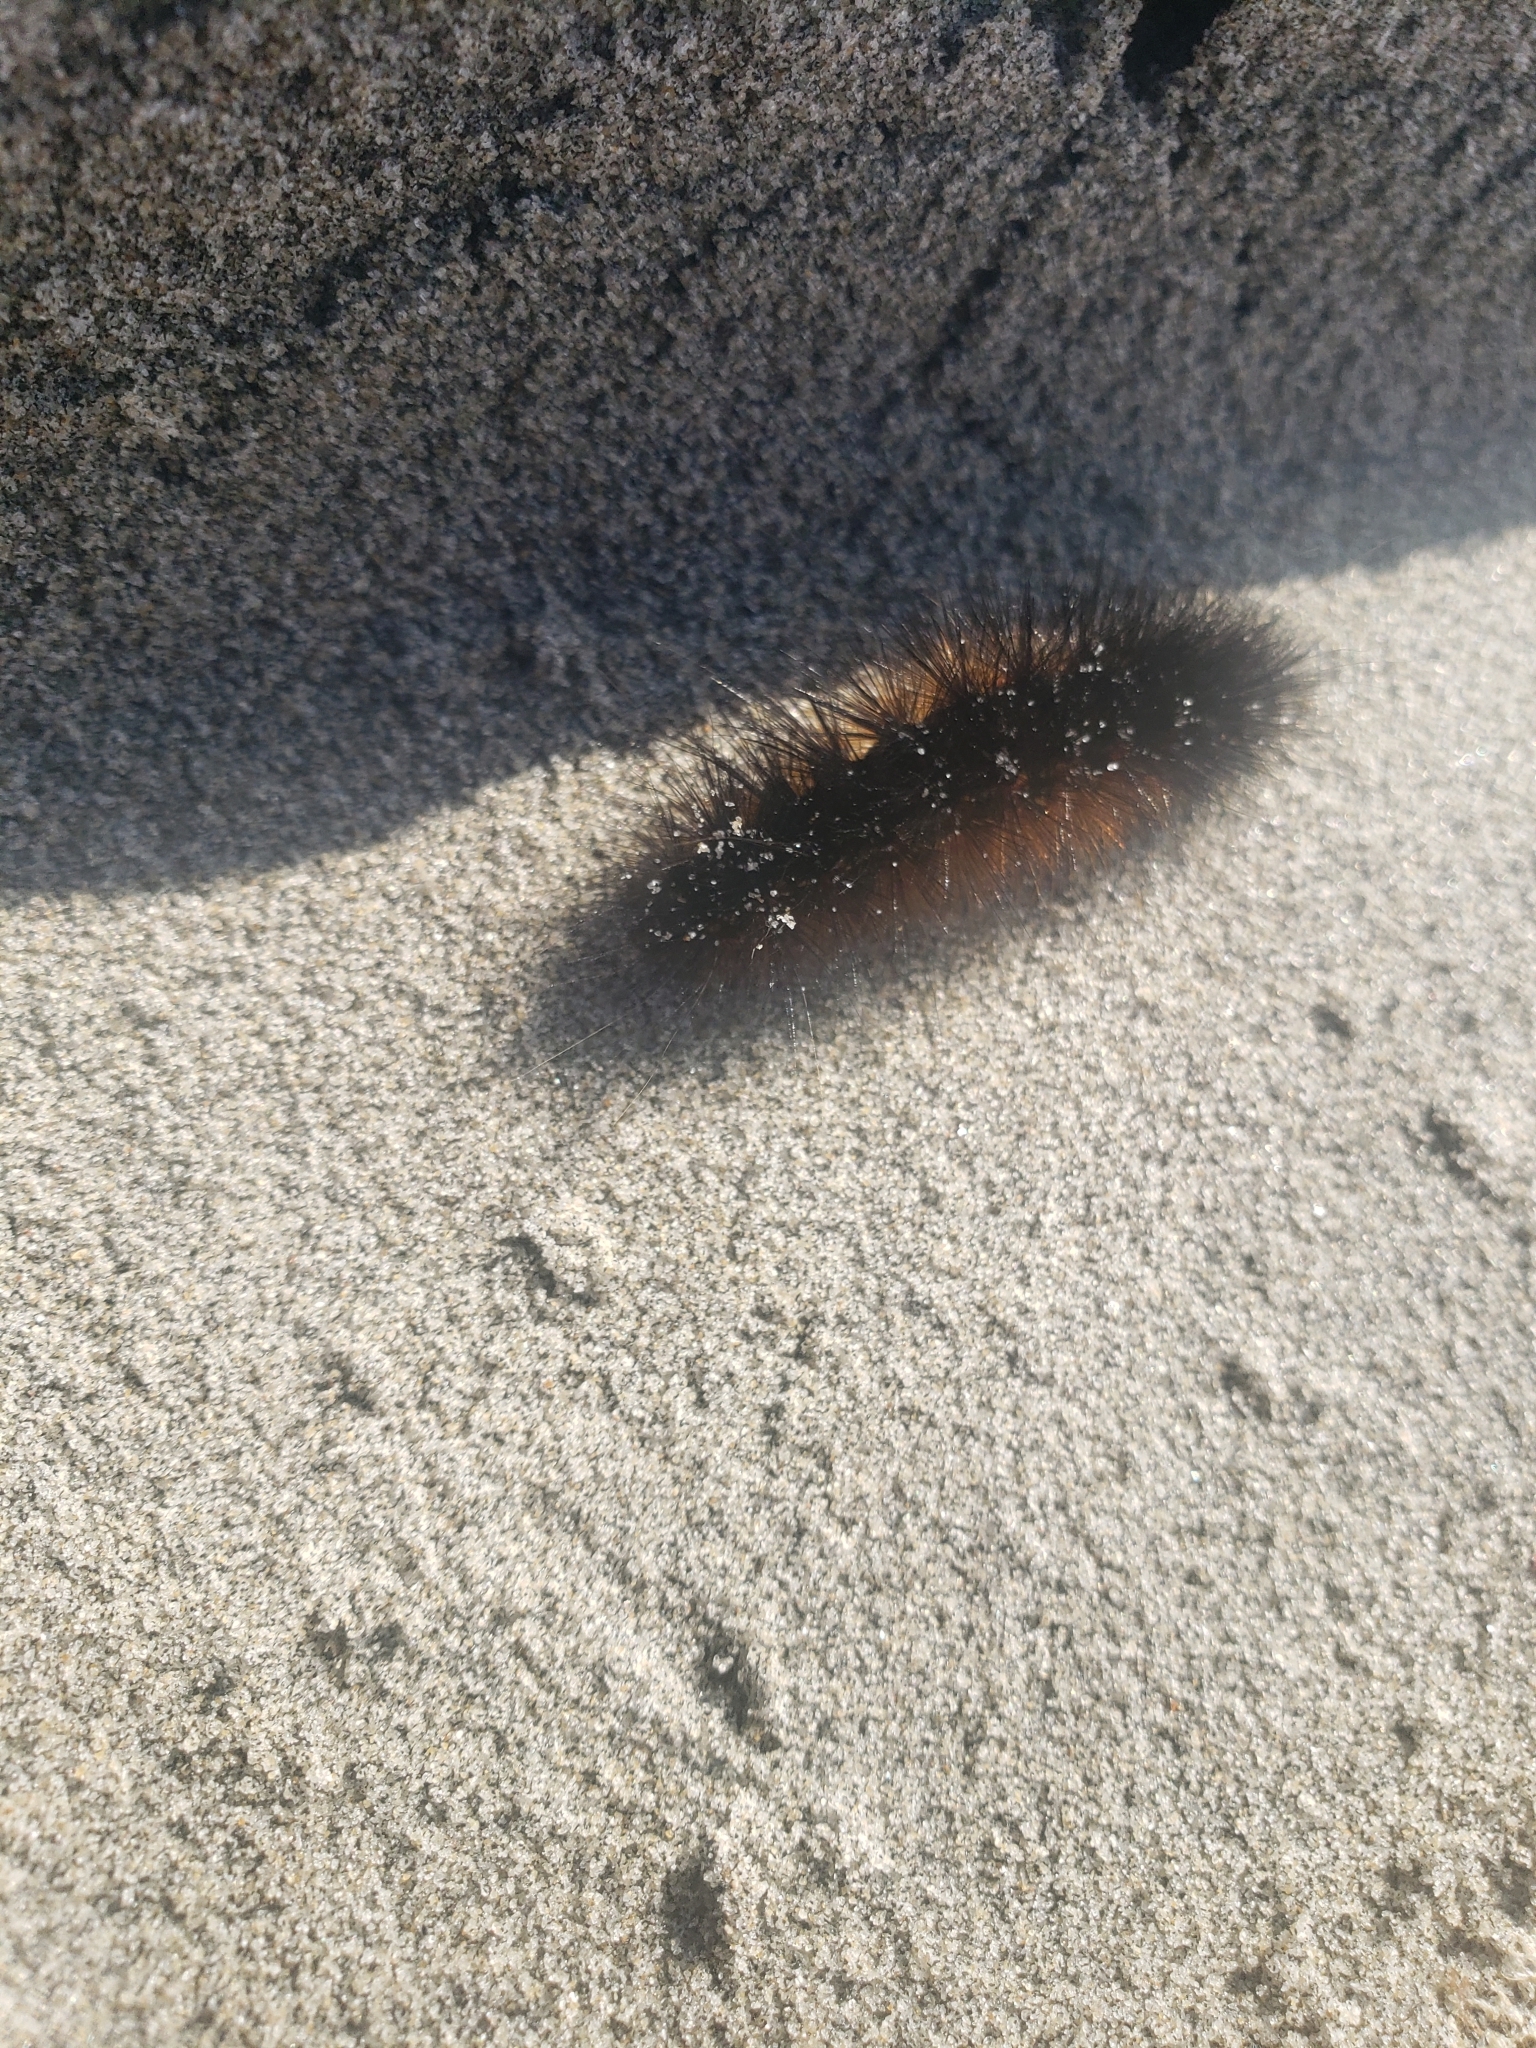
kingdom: Animalia
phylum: Arthropoda
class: Insecta
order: Lepidoptera
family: Erebidae
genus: Estigmene
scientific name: Estigmene acrea
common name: Salt marsh moth
